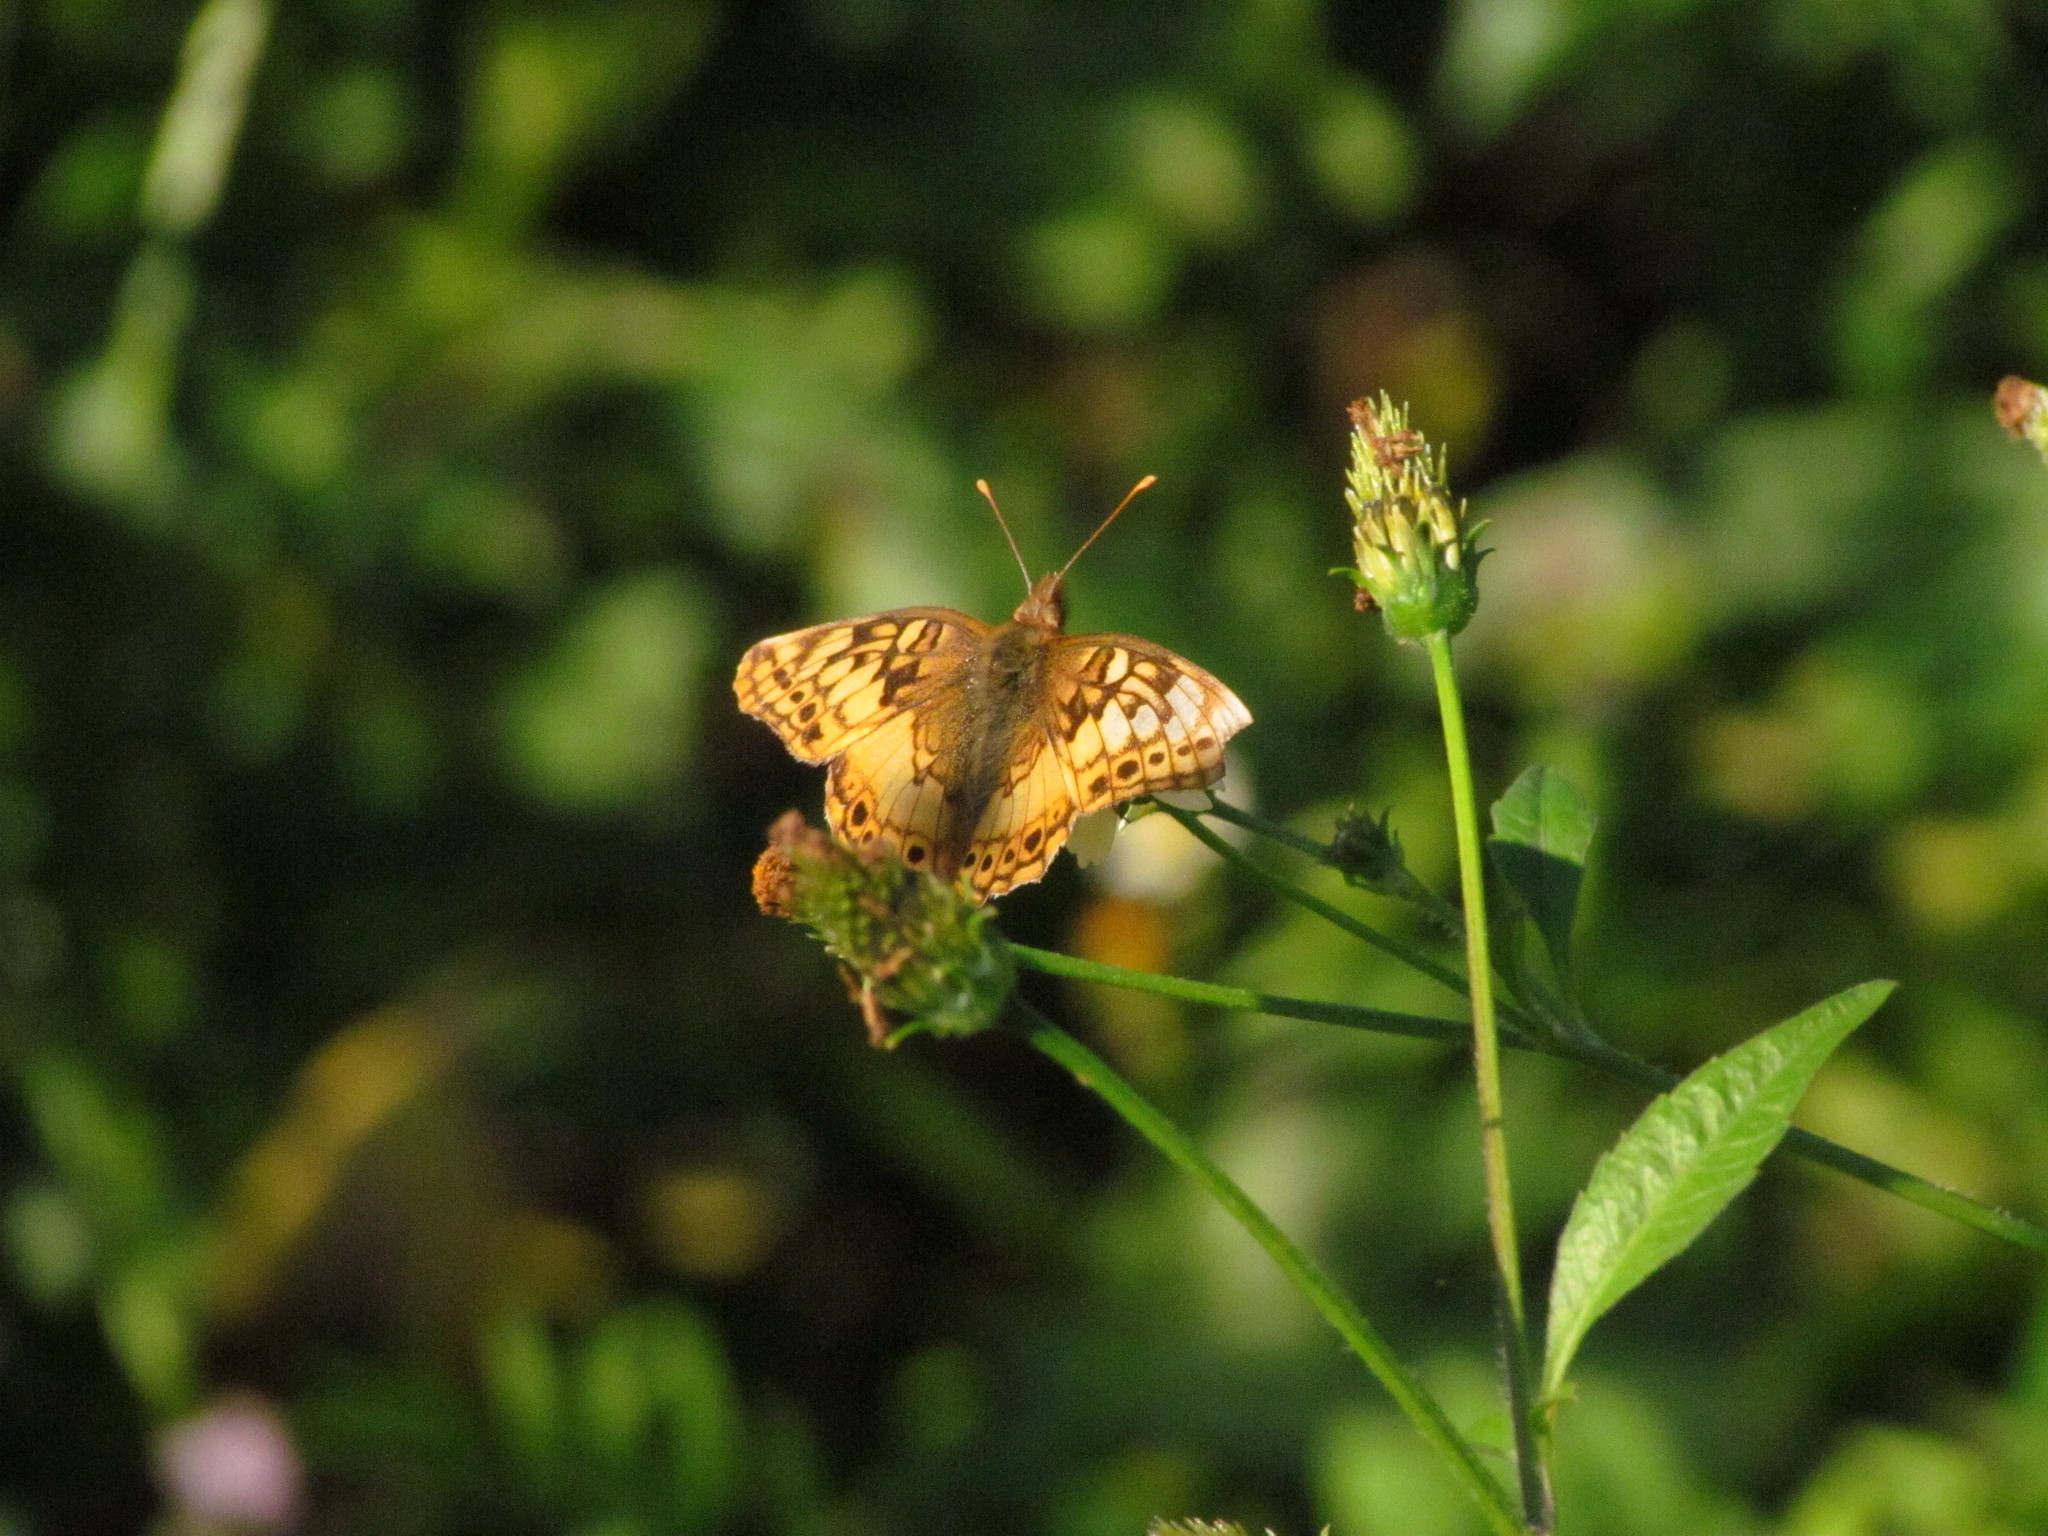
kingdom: Animalia
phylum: Arthropoda
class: Insecta
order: Lepidoptera
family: Nymphalidae
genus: Euptoieta
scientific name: Euptoieta hortensia
